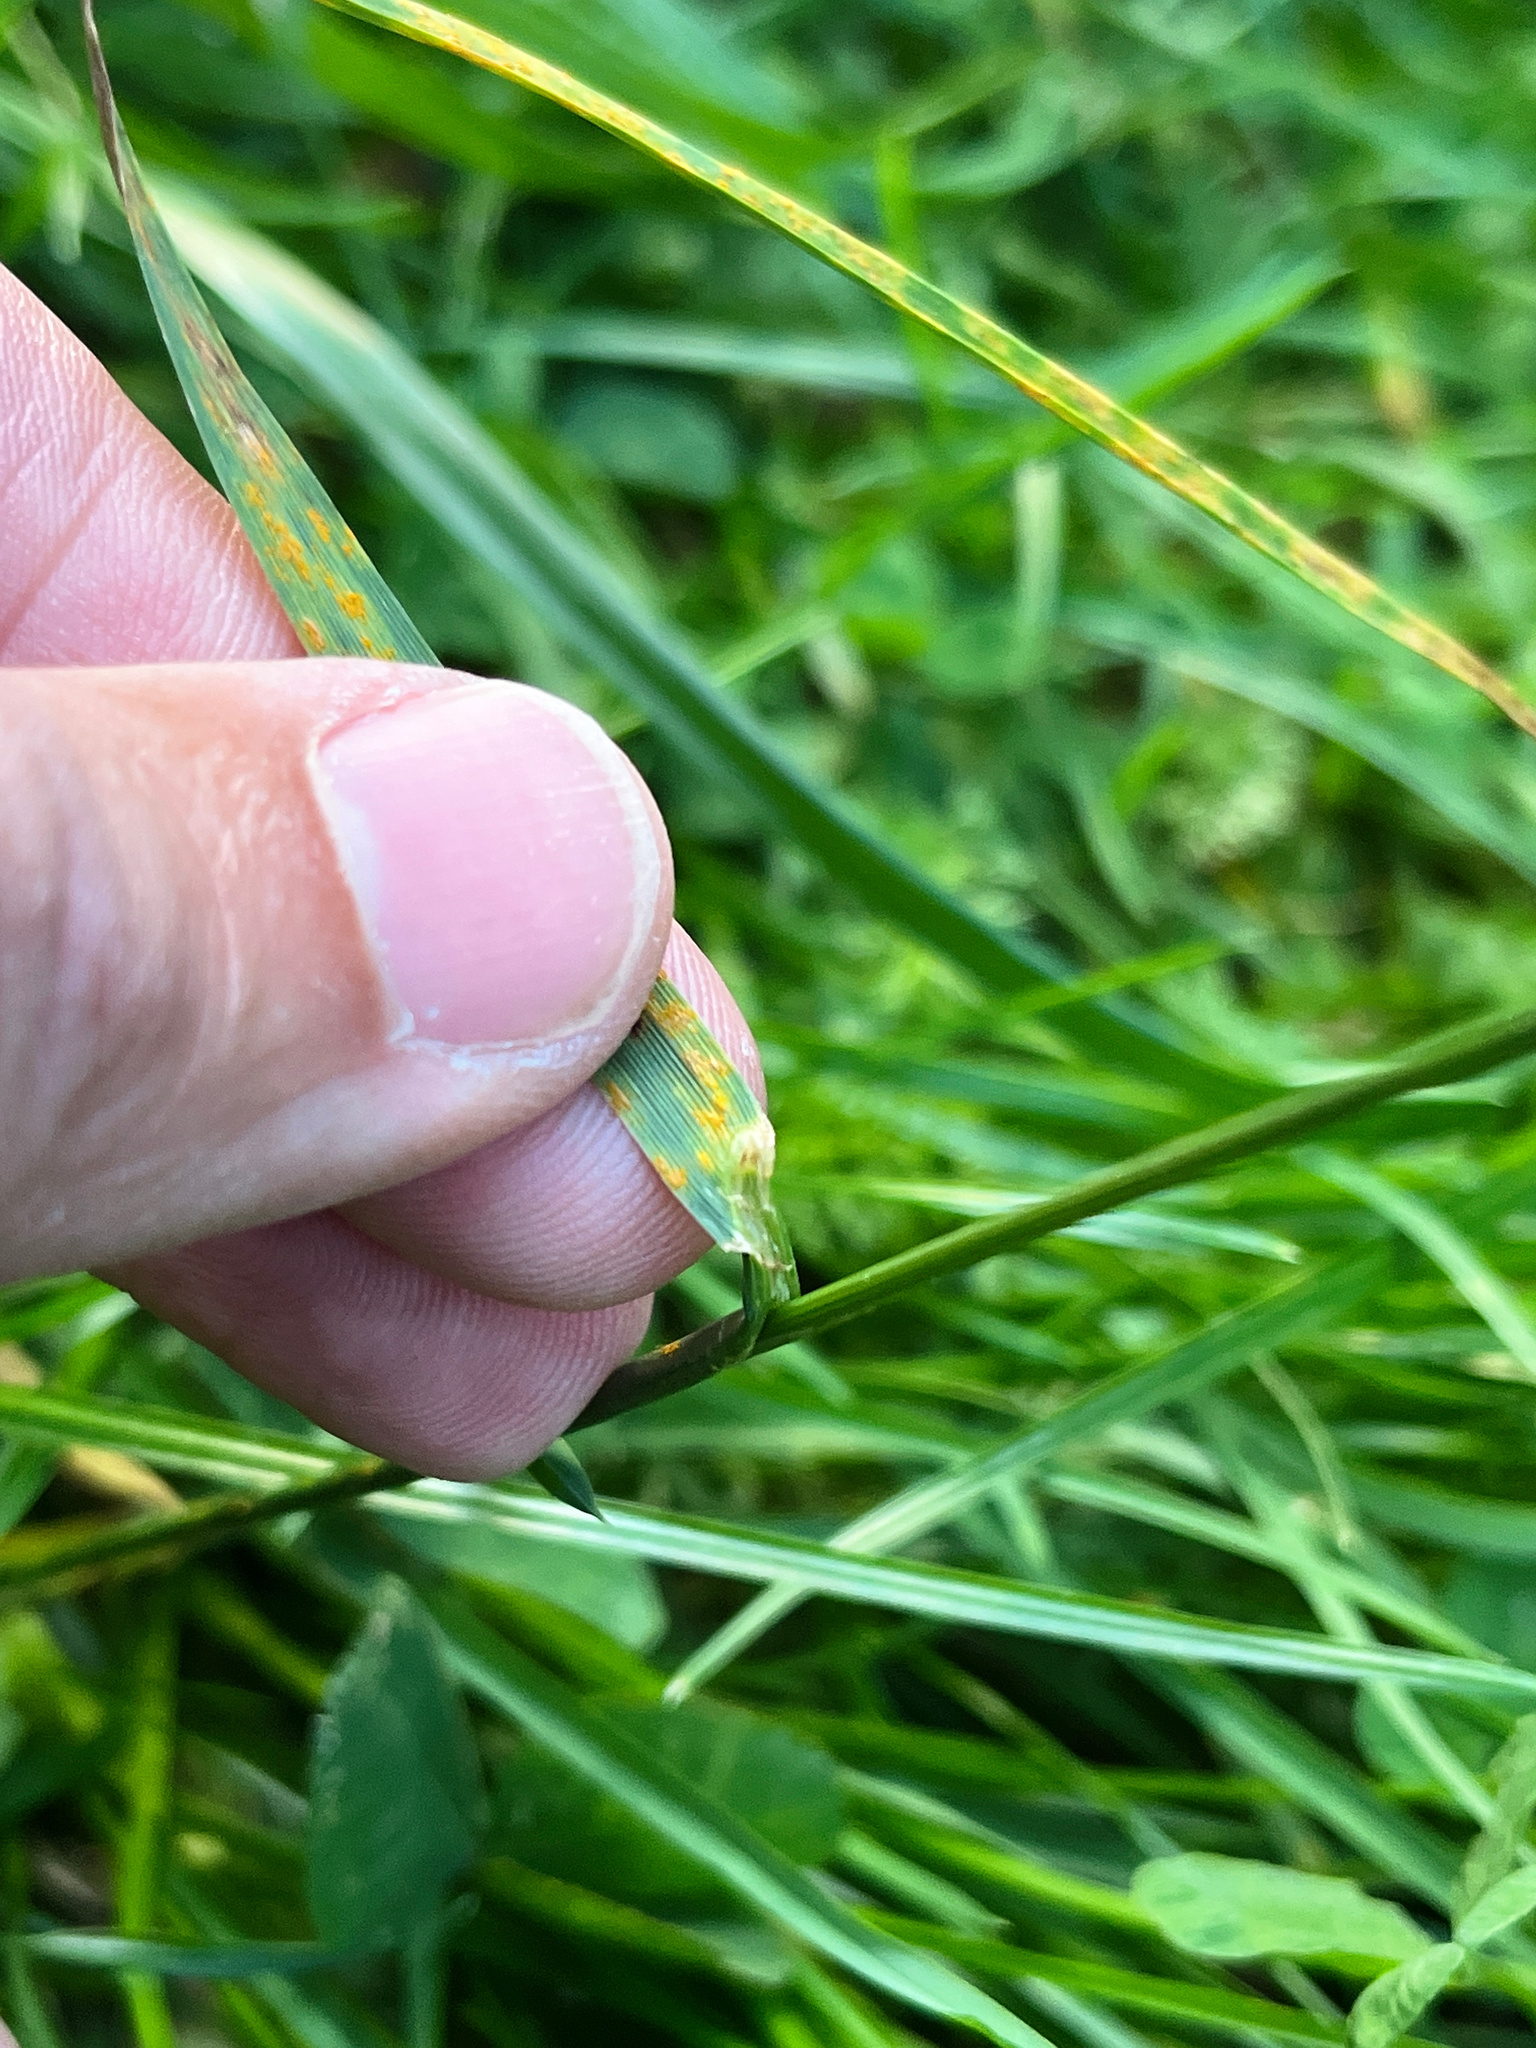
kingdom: Plantae
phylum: Tracheophyta
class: Liliopsida
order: Poales
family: Poaceae
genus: Lolium
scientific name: Lolium perenne
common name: Perennial ryegrass
